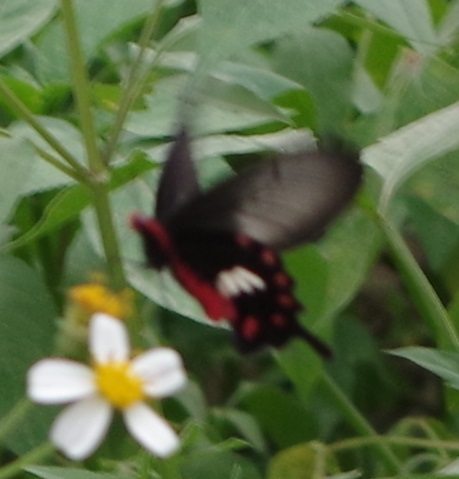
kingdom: Animalia
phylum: Arthropoda
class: Insecta
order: Lepidoptera
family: Papilionidae
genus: Pachliopta
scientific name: Pachliopta aristolochiae
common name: Common rose
